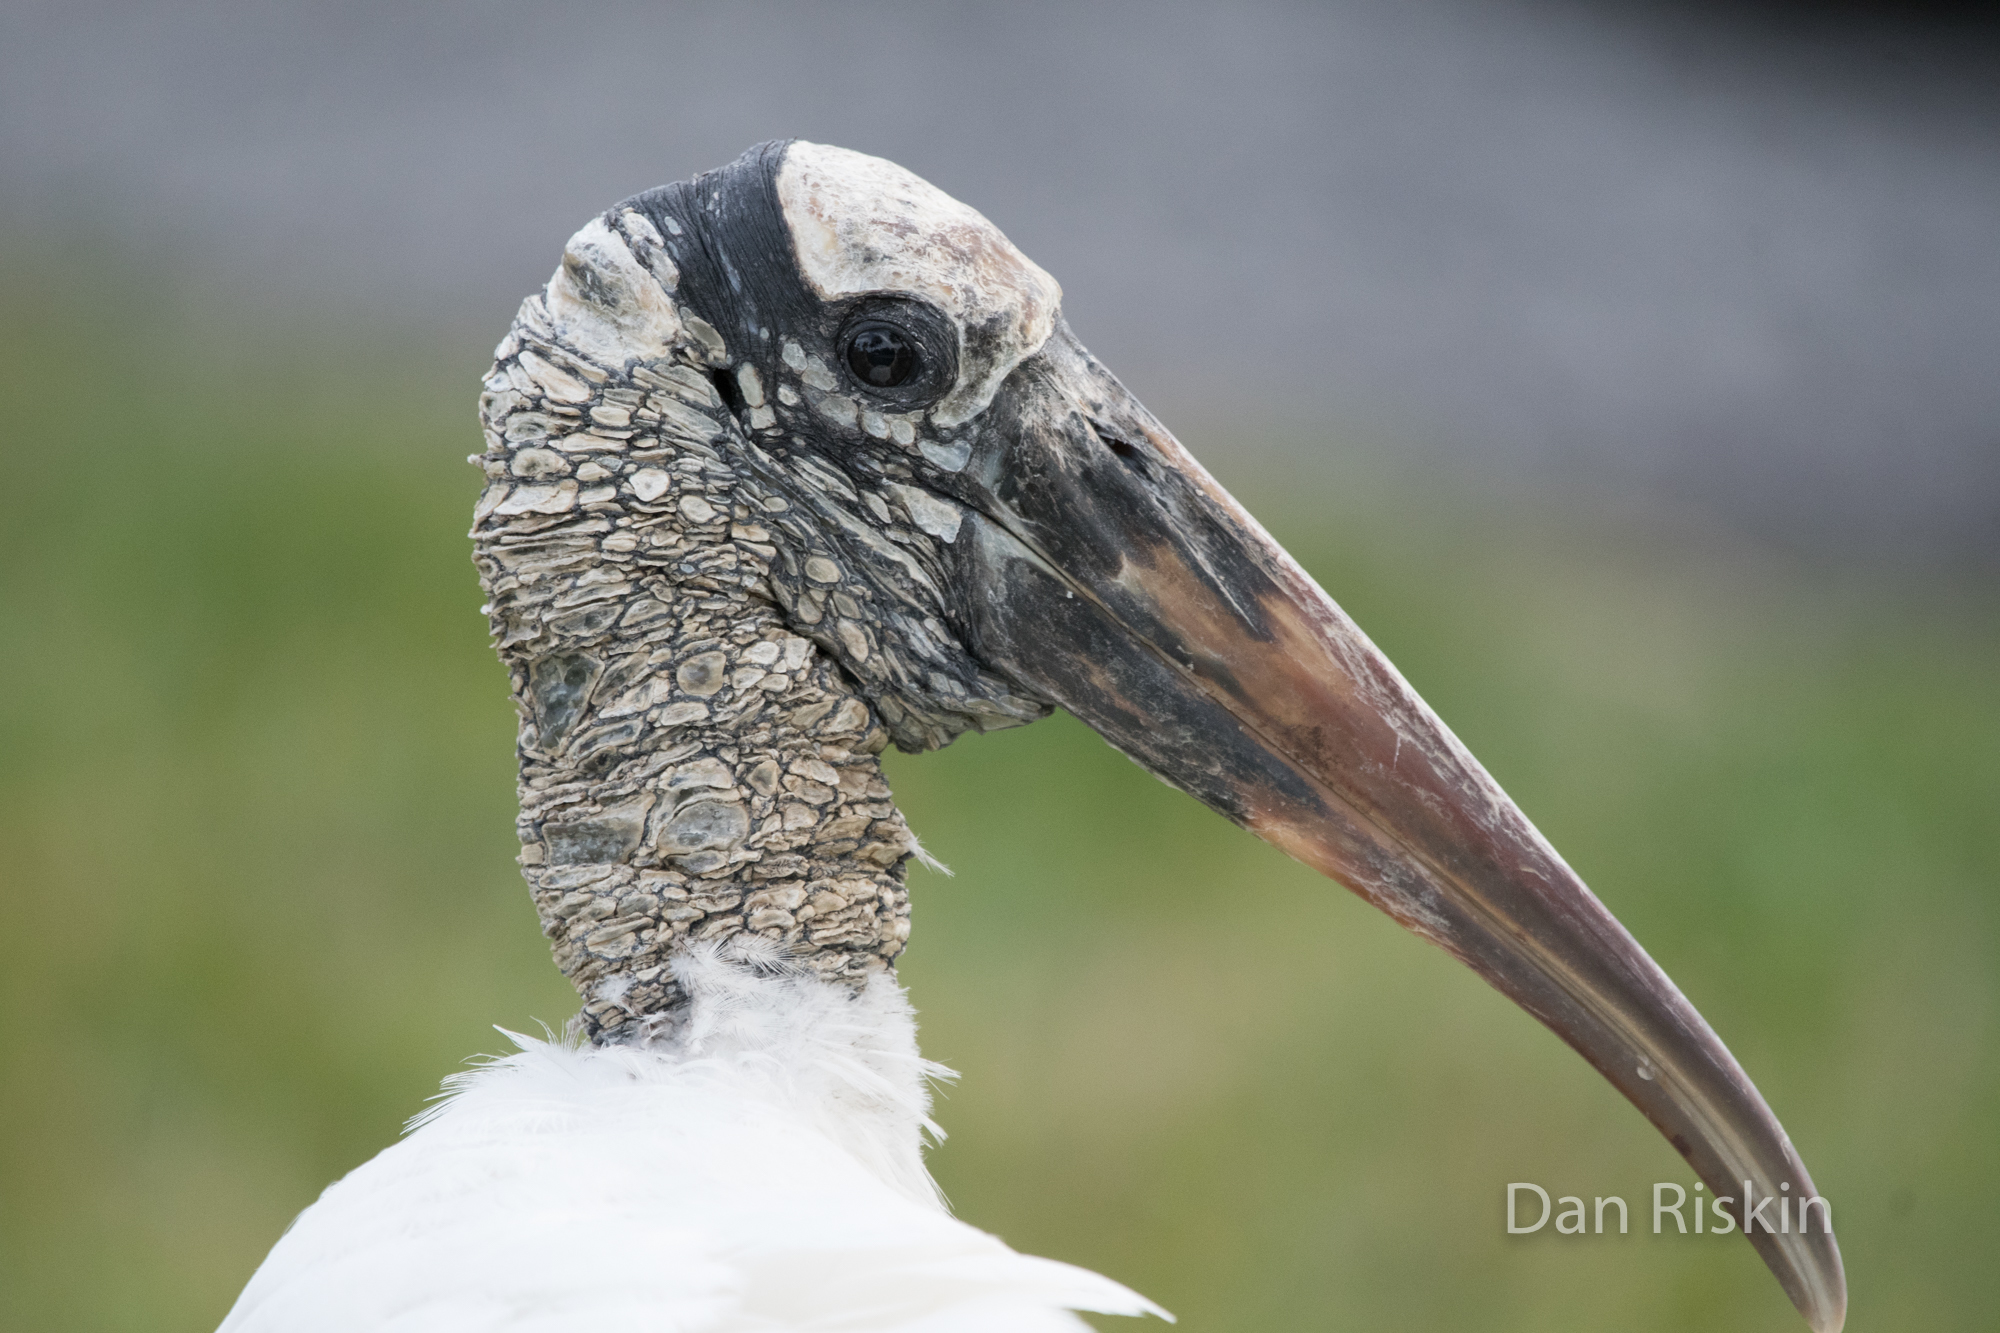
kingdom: Animalia
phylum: Chordata
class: Aves
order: Ciconiiformes
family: Ciconiidae
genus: Mycteria
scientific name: Mycteria americana
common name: Wood stork
